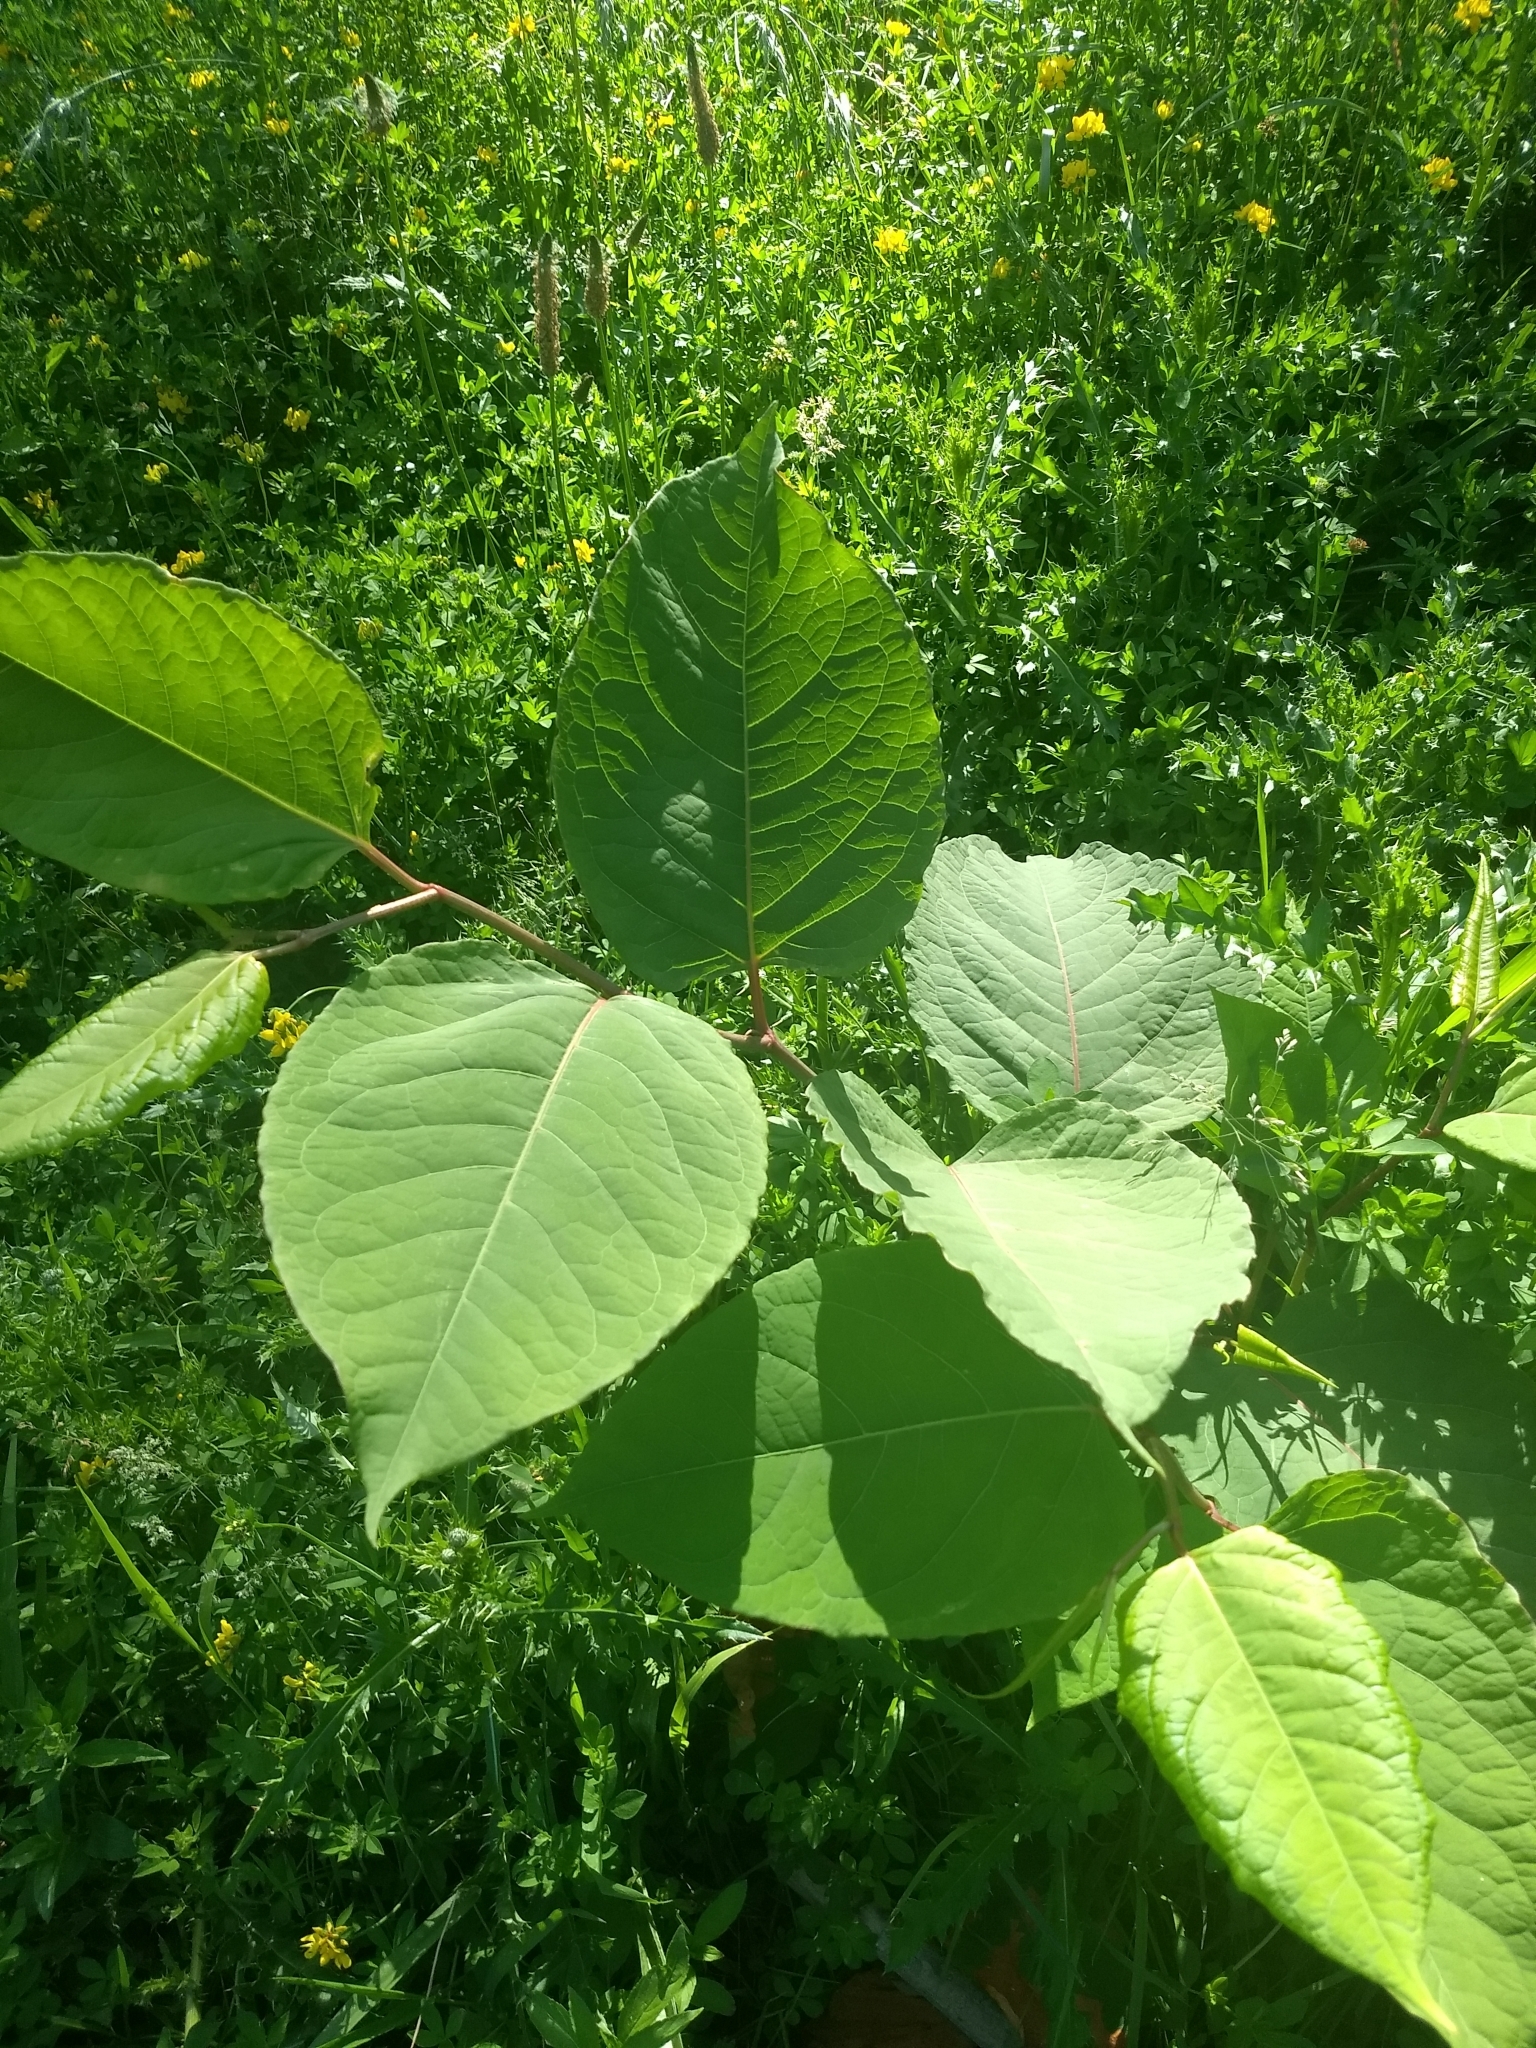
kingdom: Plantae
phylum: Tracheophyta
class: Magnoliopsida
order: Caryophyllales
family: Polygonaceae
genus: Reynoutria
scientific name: Reynoutria japonica
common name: Japanese knotweed
